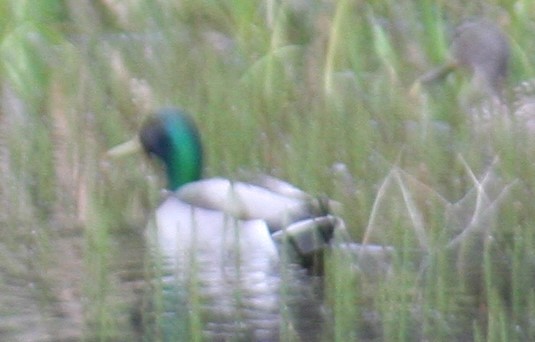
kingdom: Animalia
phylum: Chordata
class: Aves
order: Anseriformes
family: Anatidae
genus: Anas
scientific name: Anas platyrhynchos
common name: Mallard
